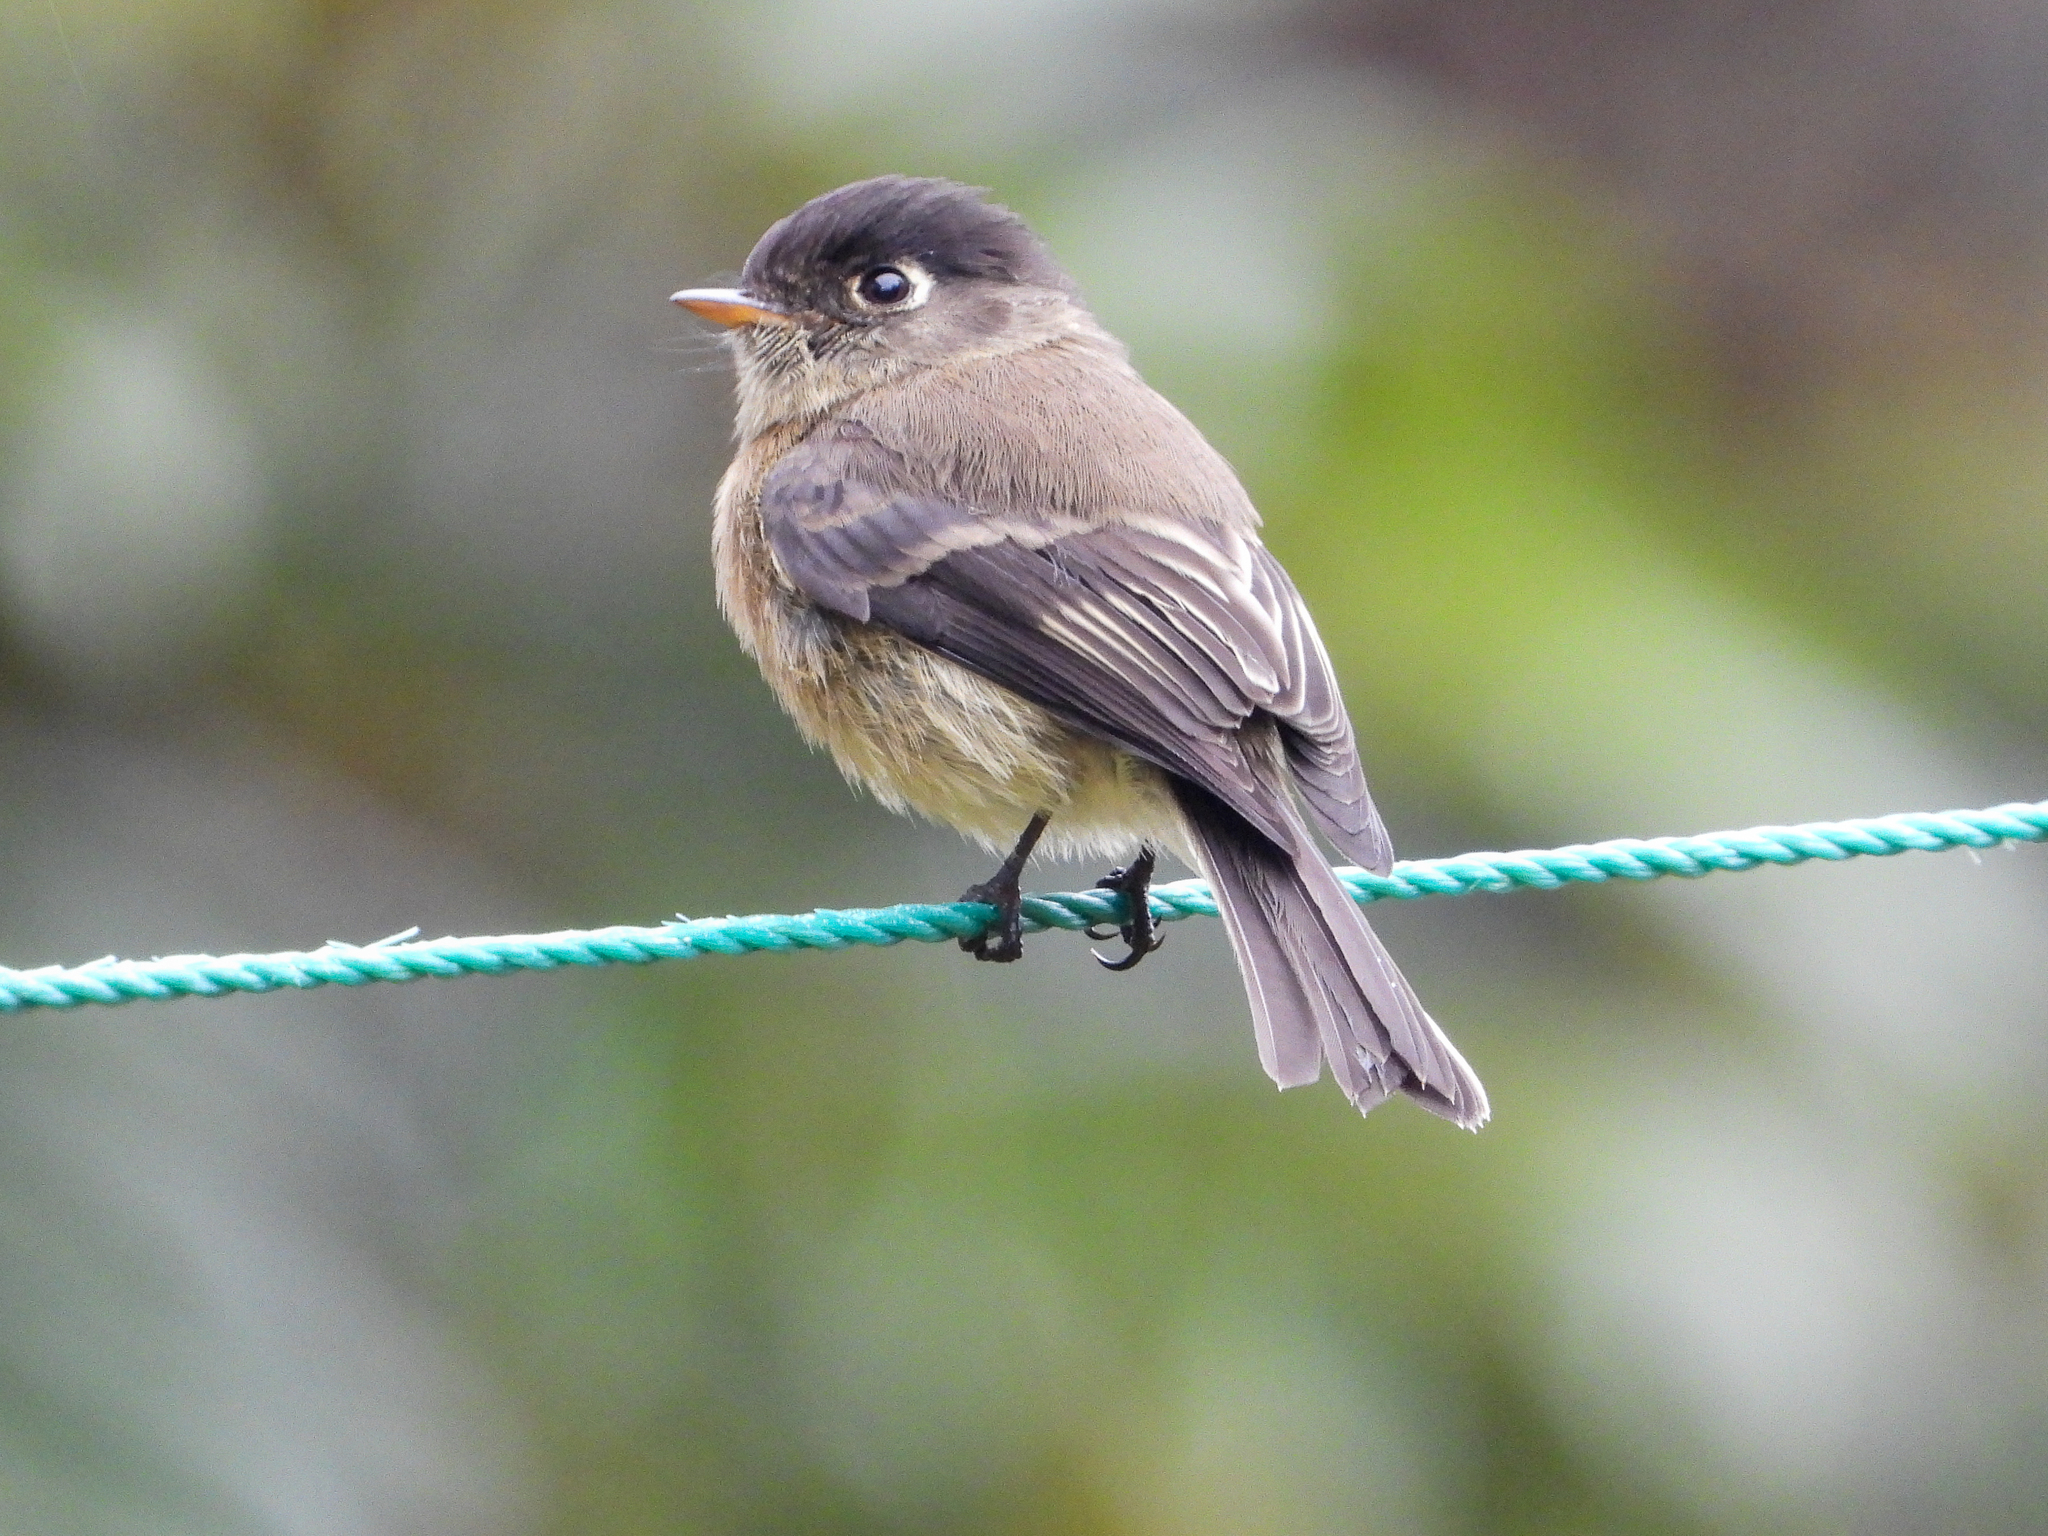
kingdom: Animalia
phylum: Chordata
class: Aves
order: Passeriformes
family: Tyrannidae
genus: Empidonax
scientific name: Empidonax atriceps
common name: Black-capped flycatcher
